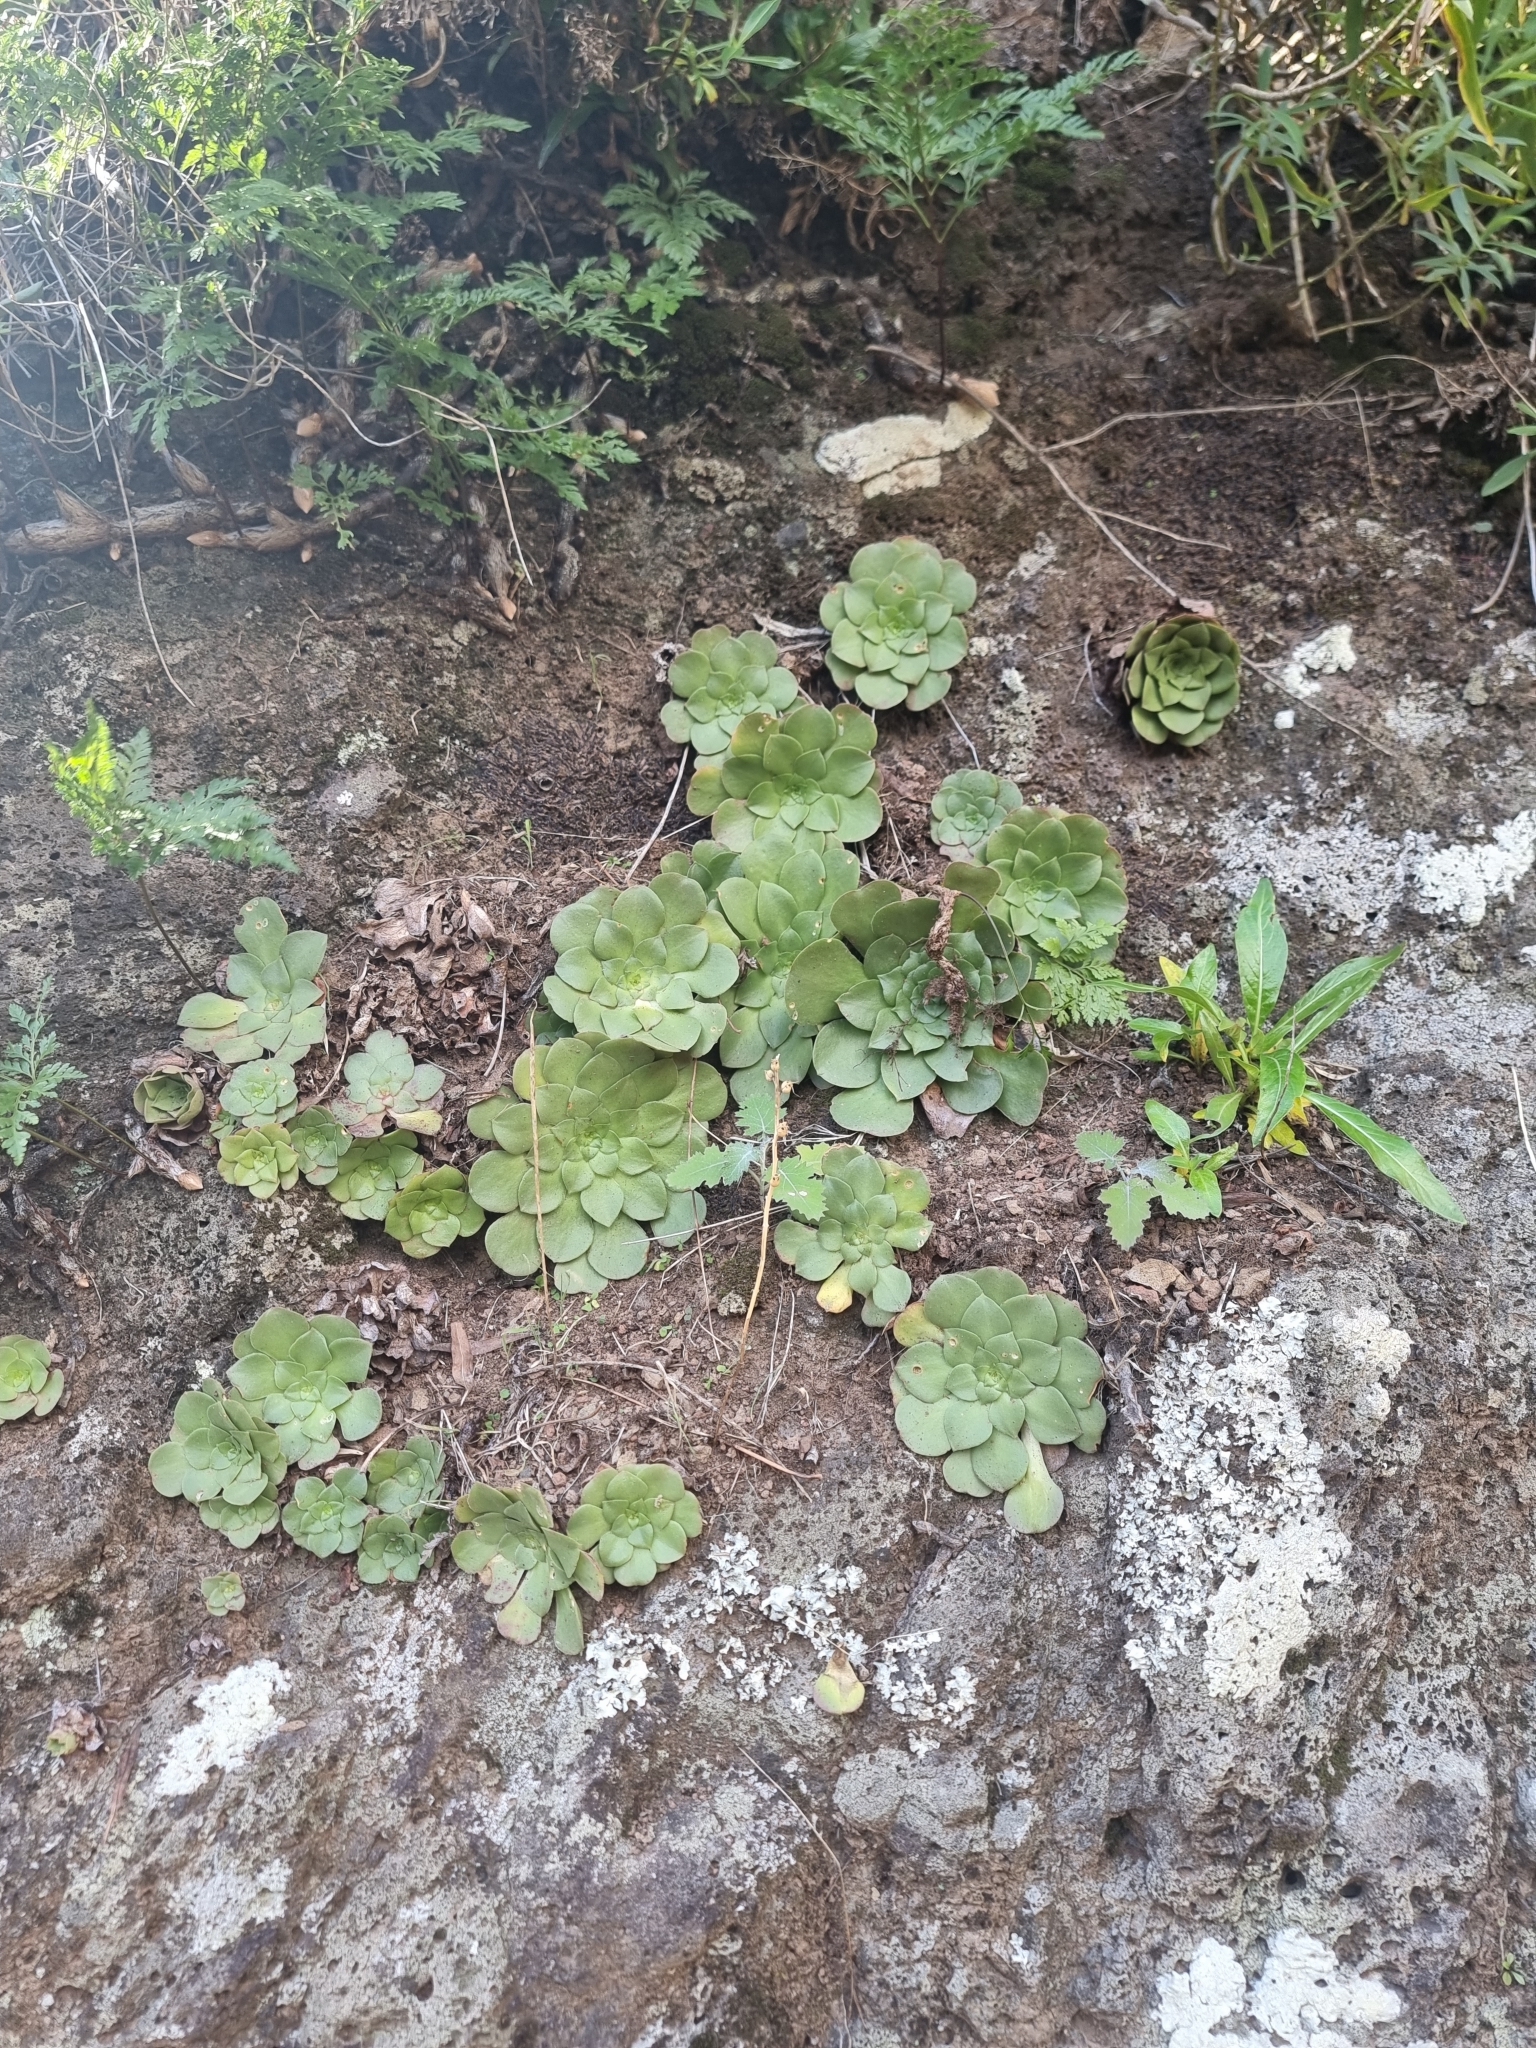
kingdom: Plantae
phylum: Tracheophyta
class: Magnoliopsida
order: Saxifragales
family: Crassulaceae
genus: Aeonium
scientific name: Aeonium glandulosum
